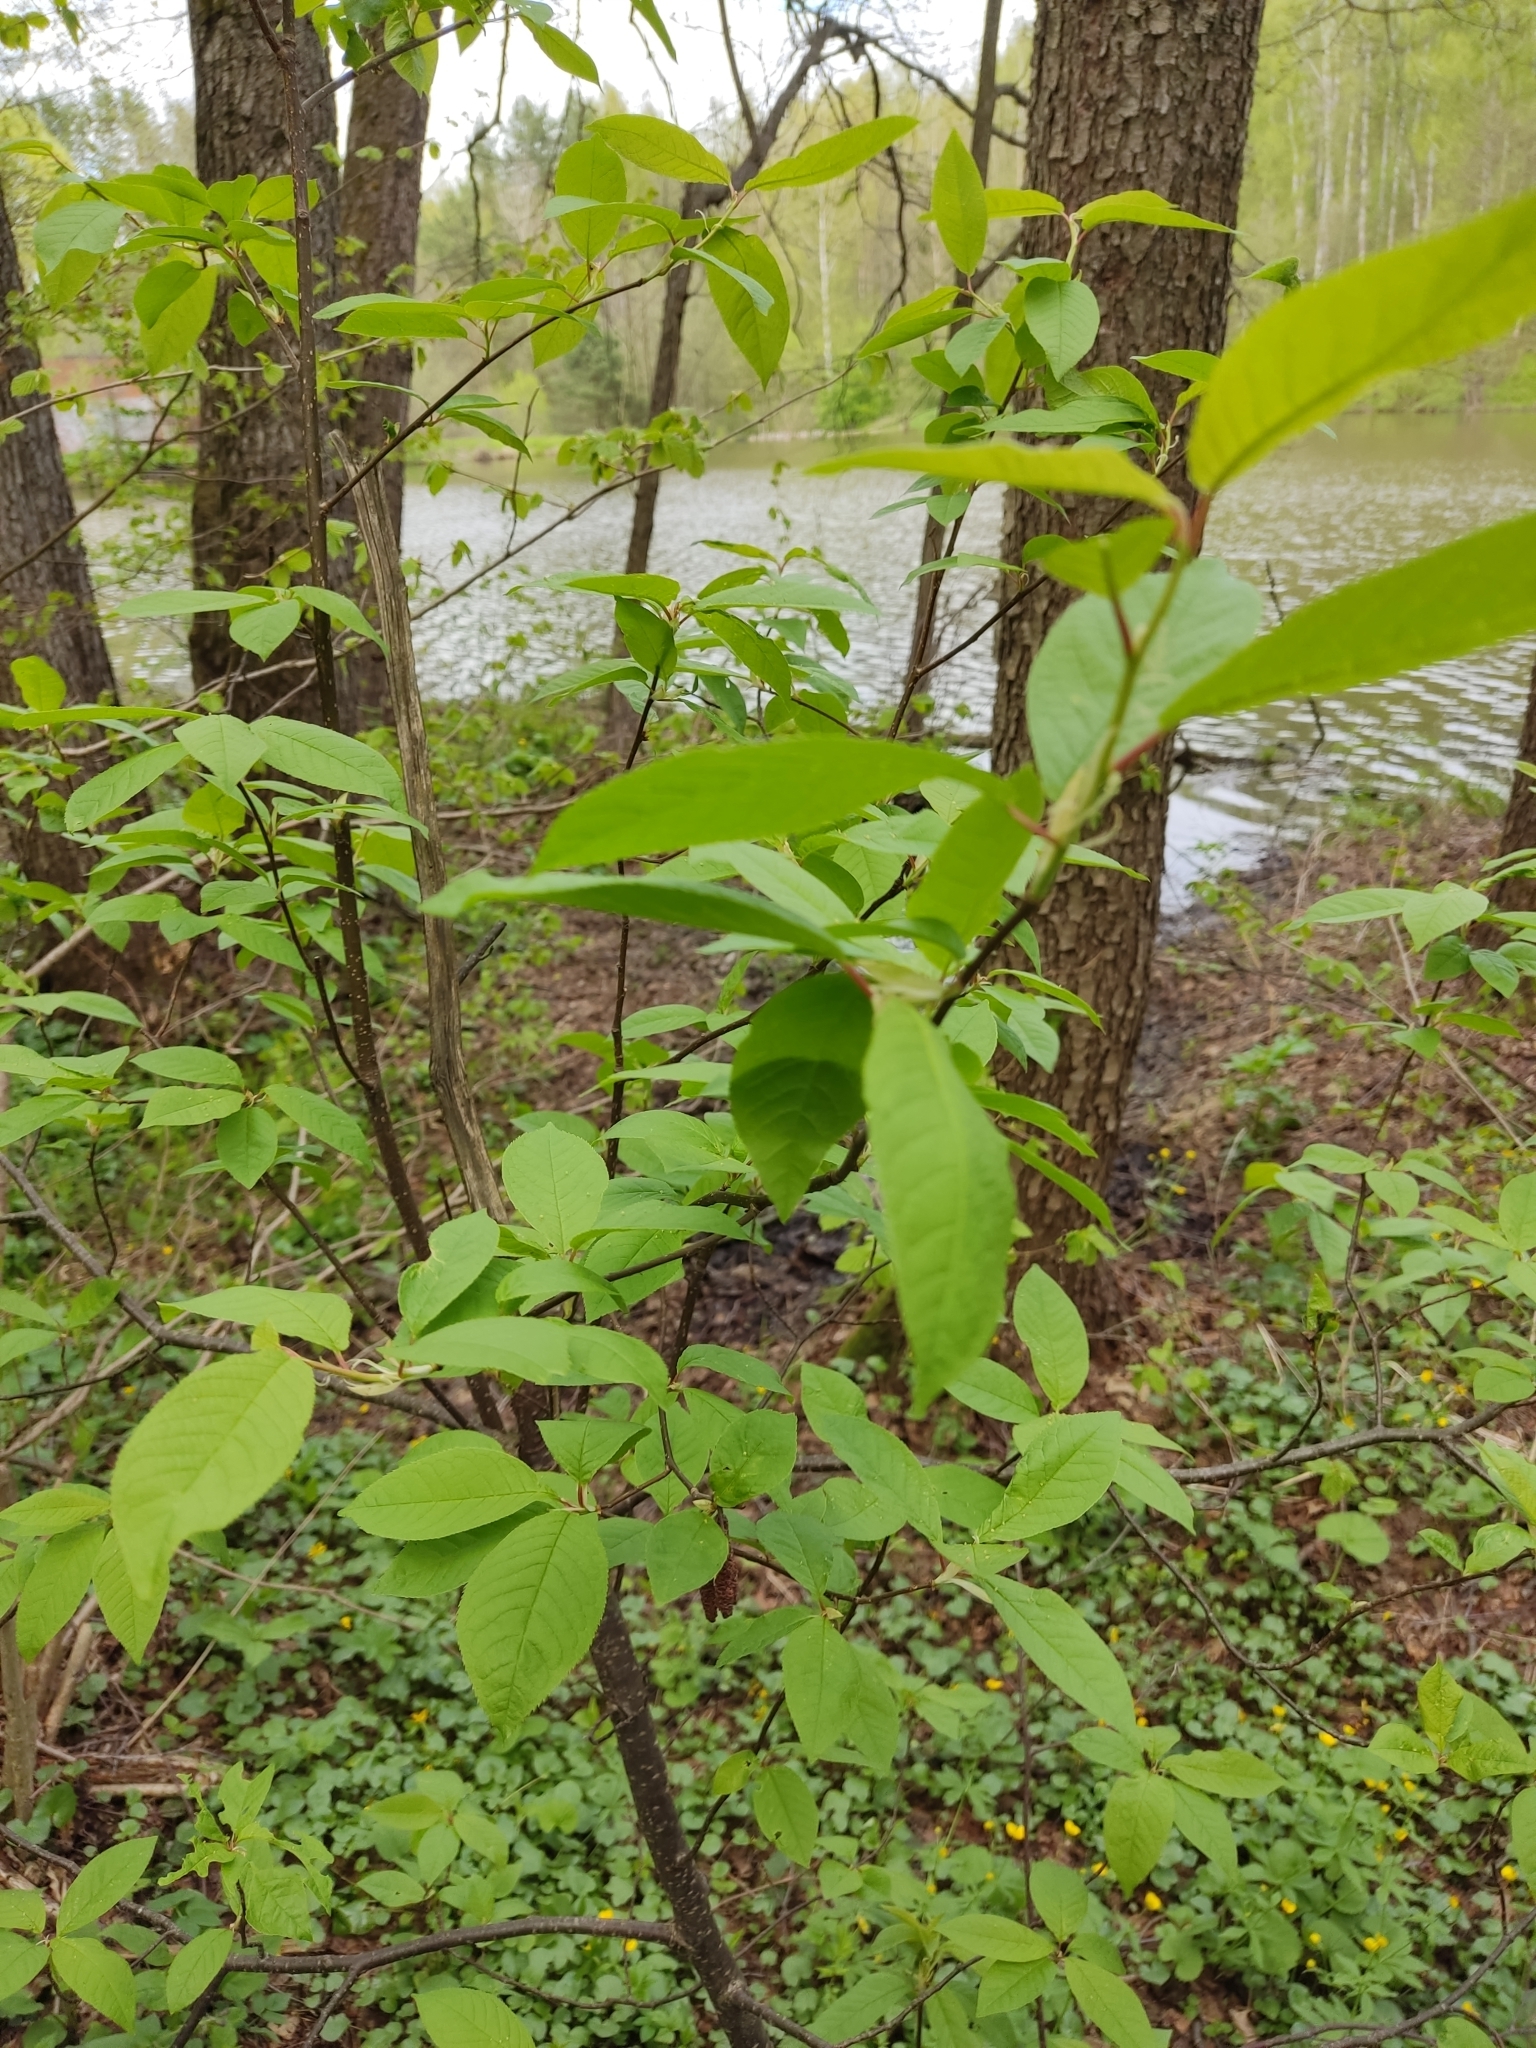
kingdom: Plantae
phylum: Tracheophyta
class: Magnoliopsida
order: Rosales
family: Rosaceae
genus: Prunus
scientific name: Prunus padus
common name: Bird cherry
